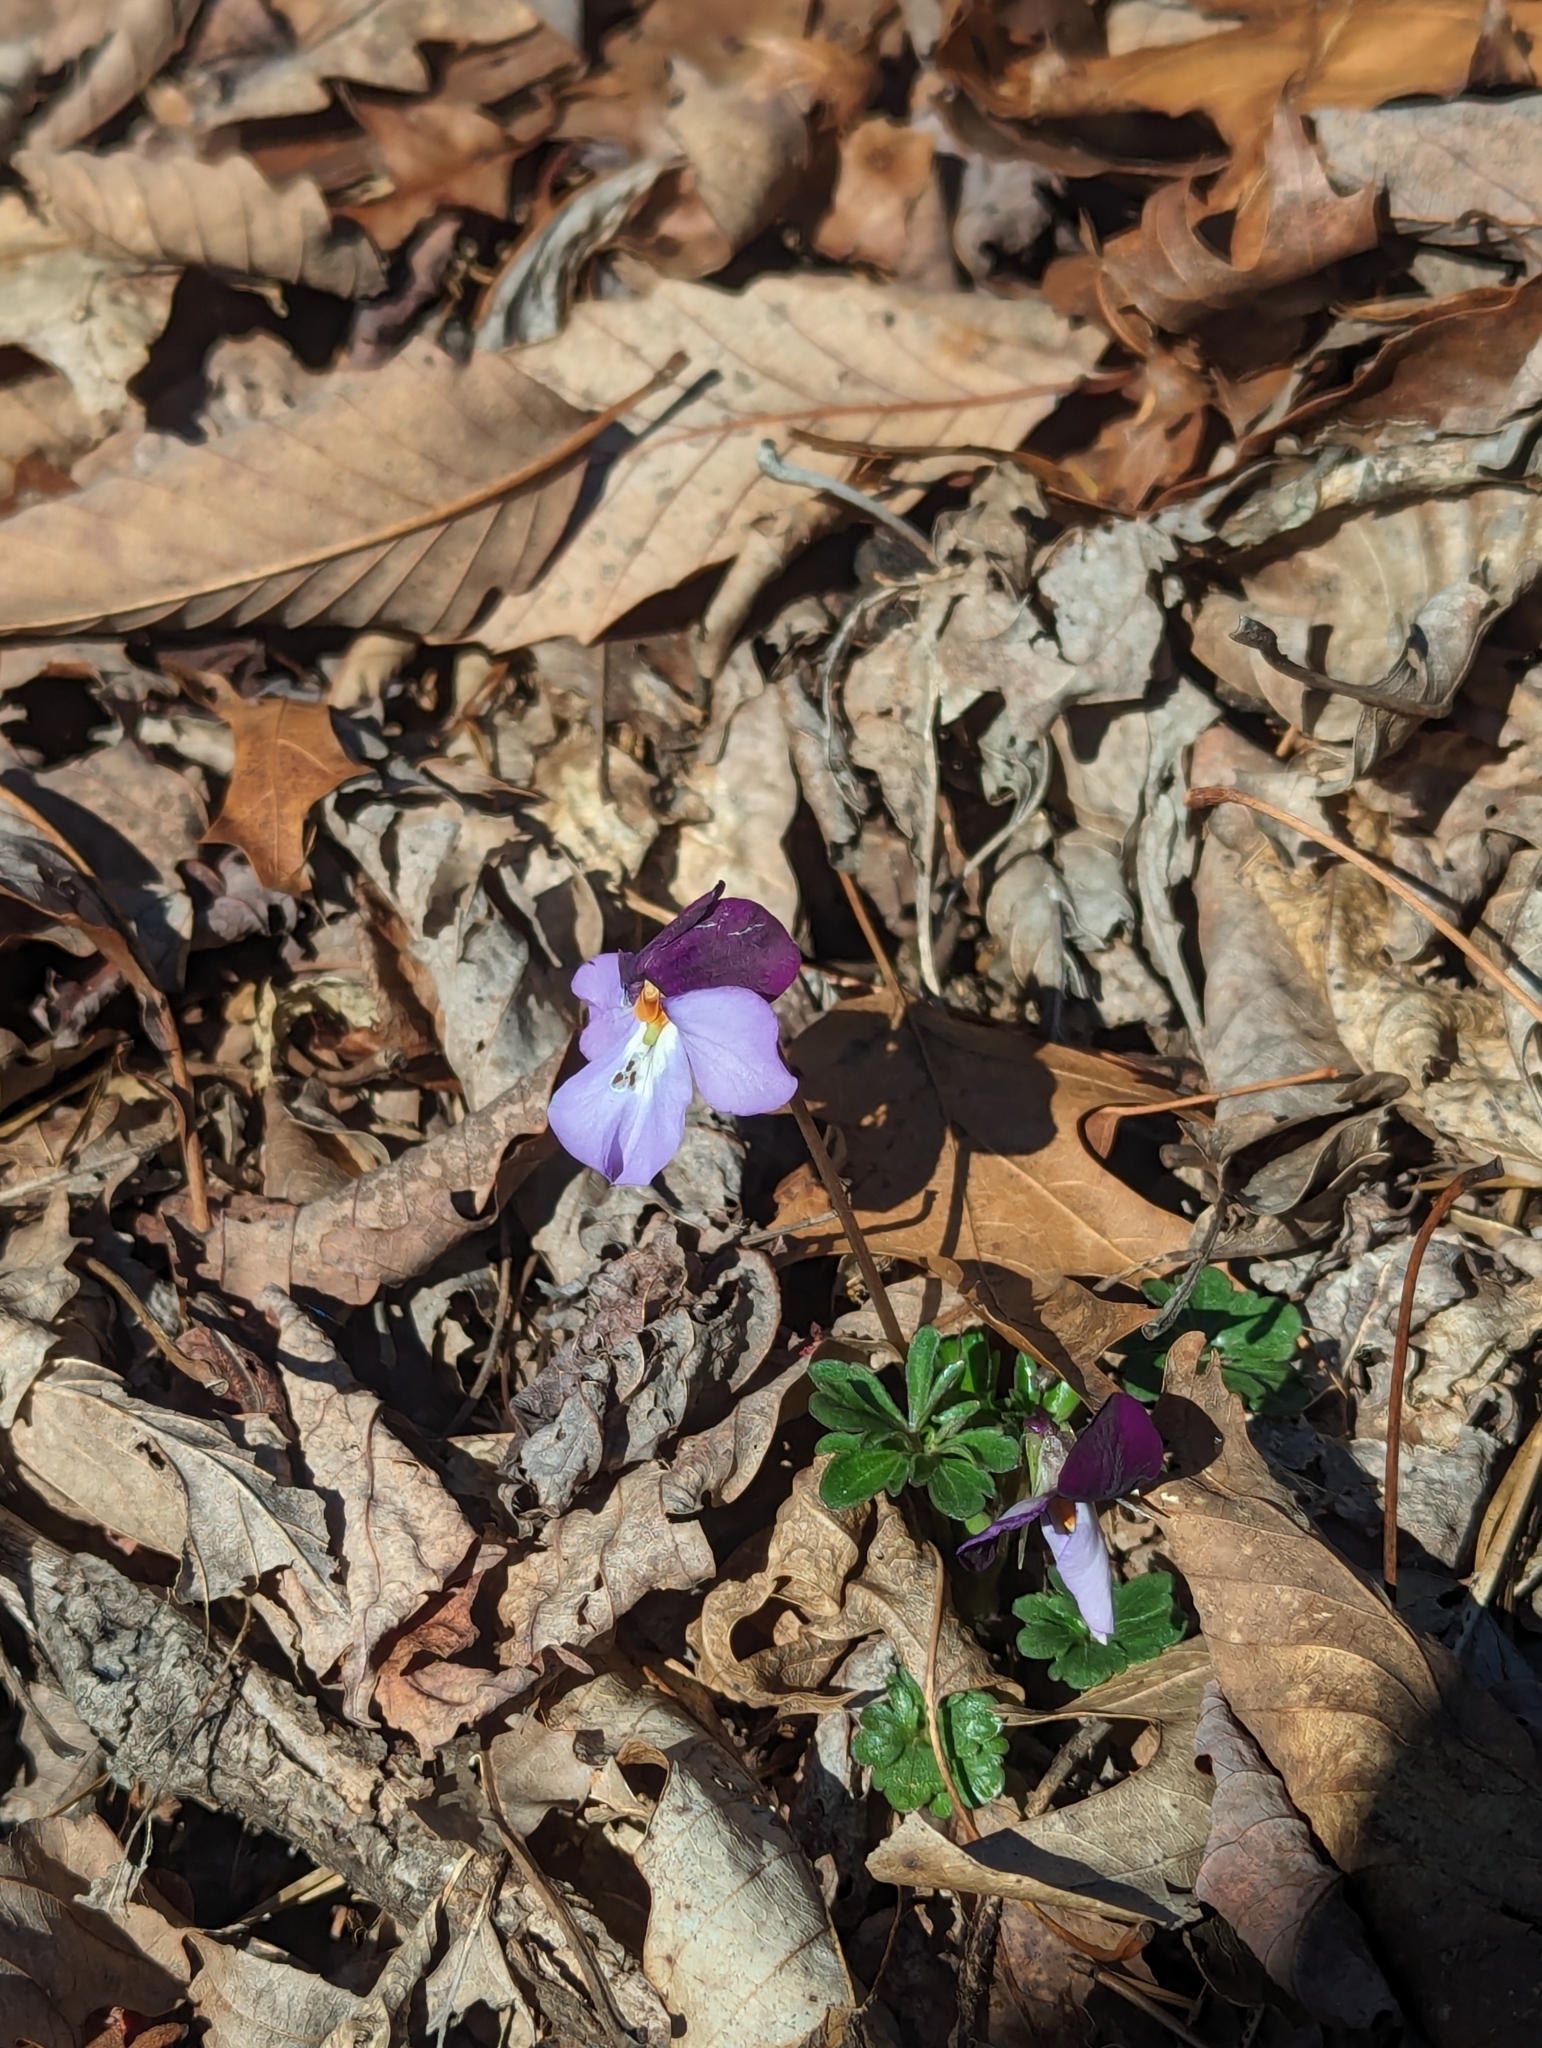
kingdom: Plantae
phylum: Tracheophyta
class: Magnoliopsida
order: Malpighiales
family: Violaceae
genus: Viola
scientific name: Viola pedata
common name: Pansy violet
